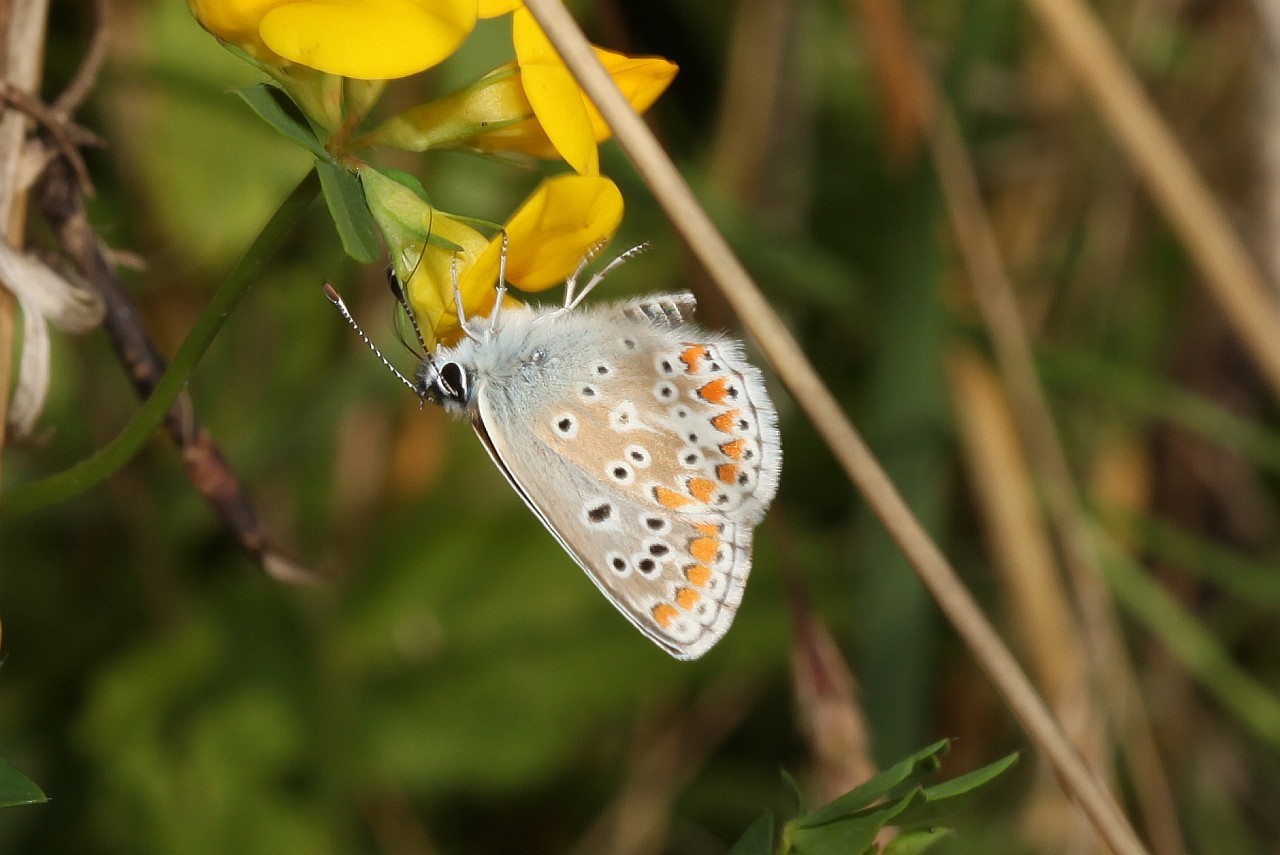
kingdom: Animalia
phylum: Arthropoda
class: Insecta
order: Lepidoptera
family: Lycaenidae
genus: Aricia
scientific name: Aricia agestis
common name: Brown argus
